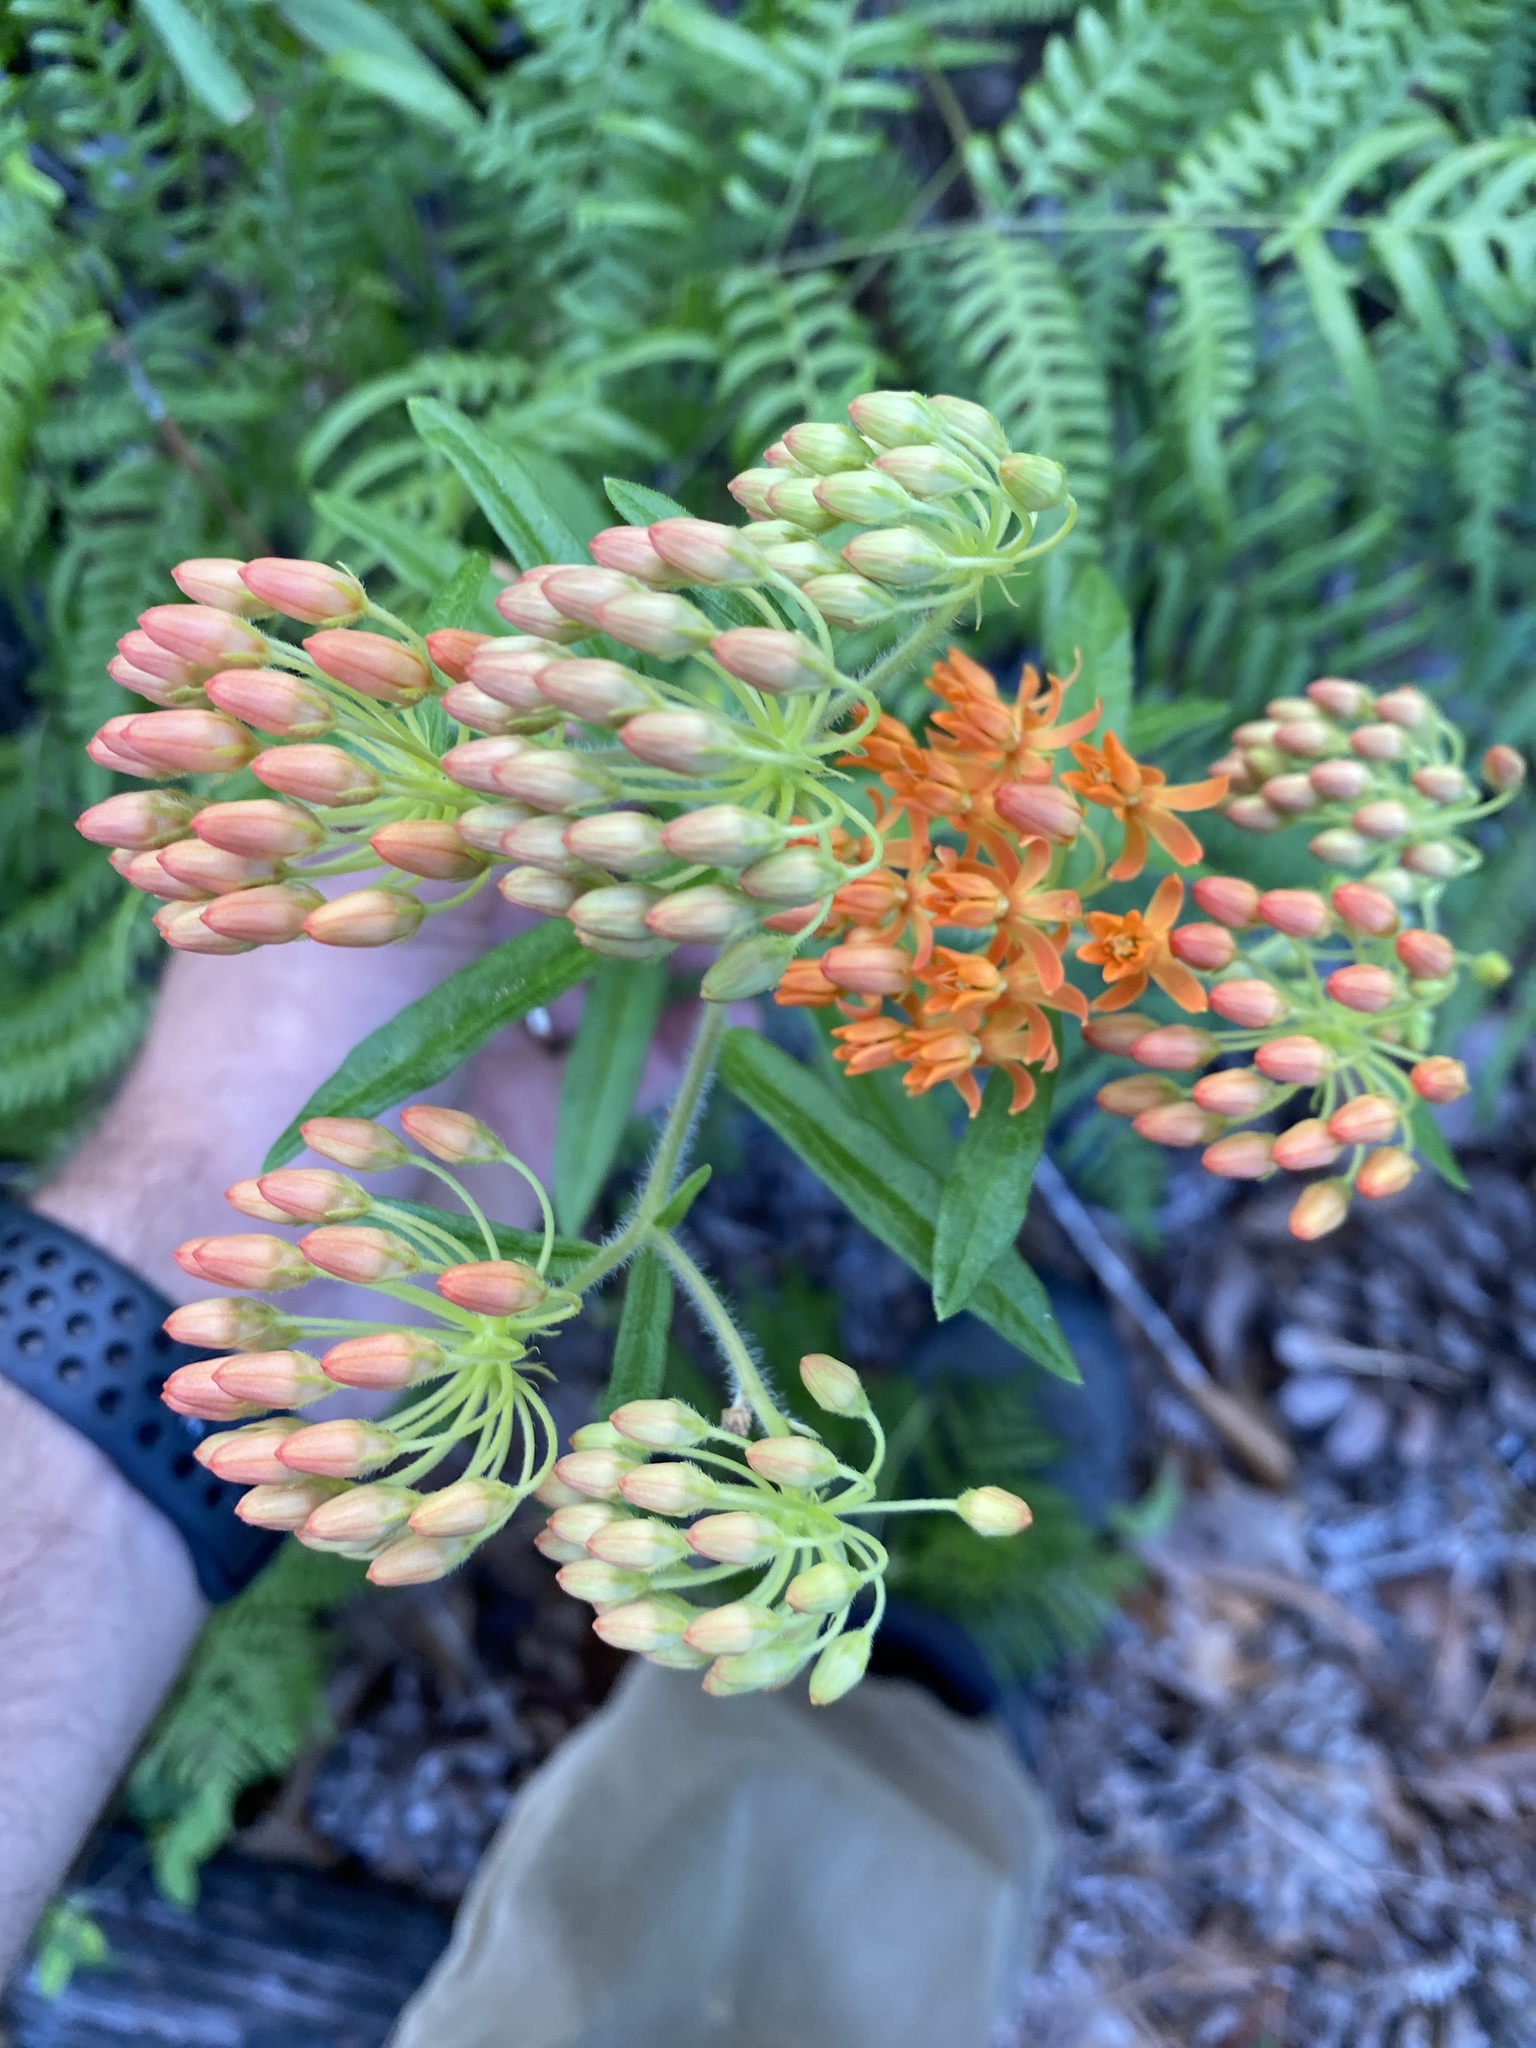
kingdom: Plantae
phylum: Tracheophyta
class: Magnoliopsida
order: Gentianales
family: Apocynaceae
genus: Asclepias
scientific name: Asclepias tuberosa
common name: Butterfly milkweed
